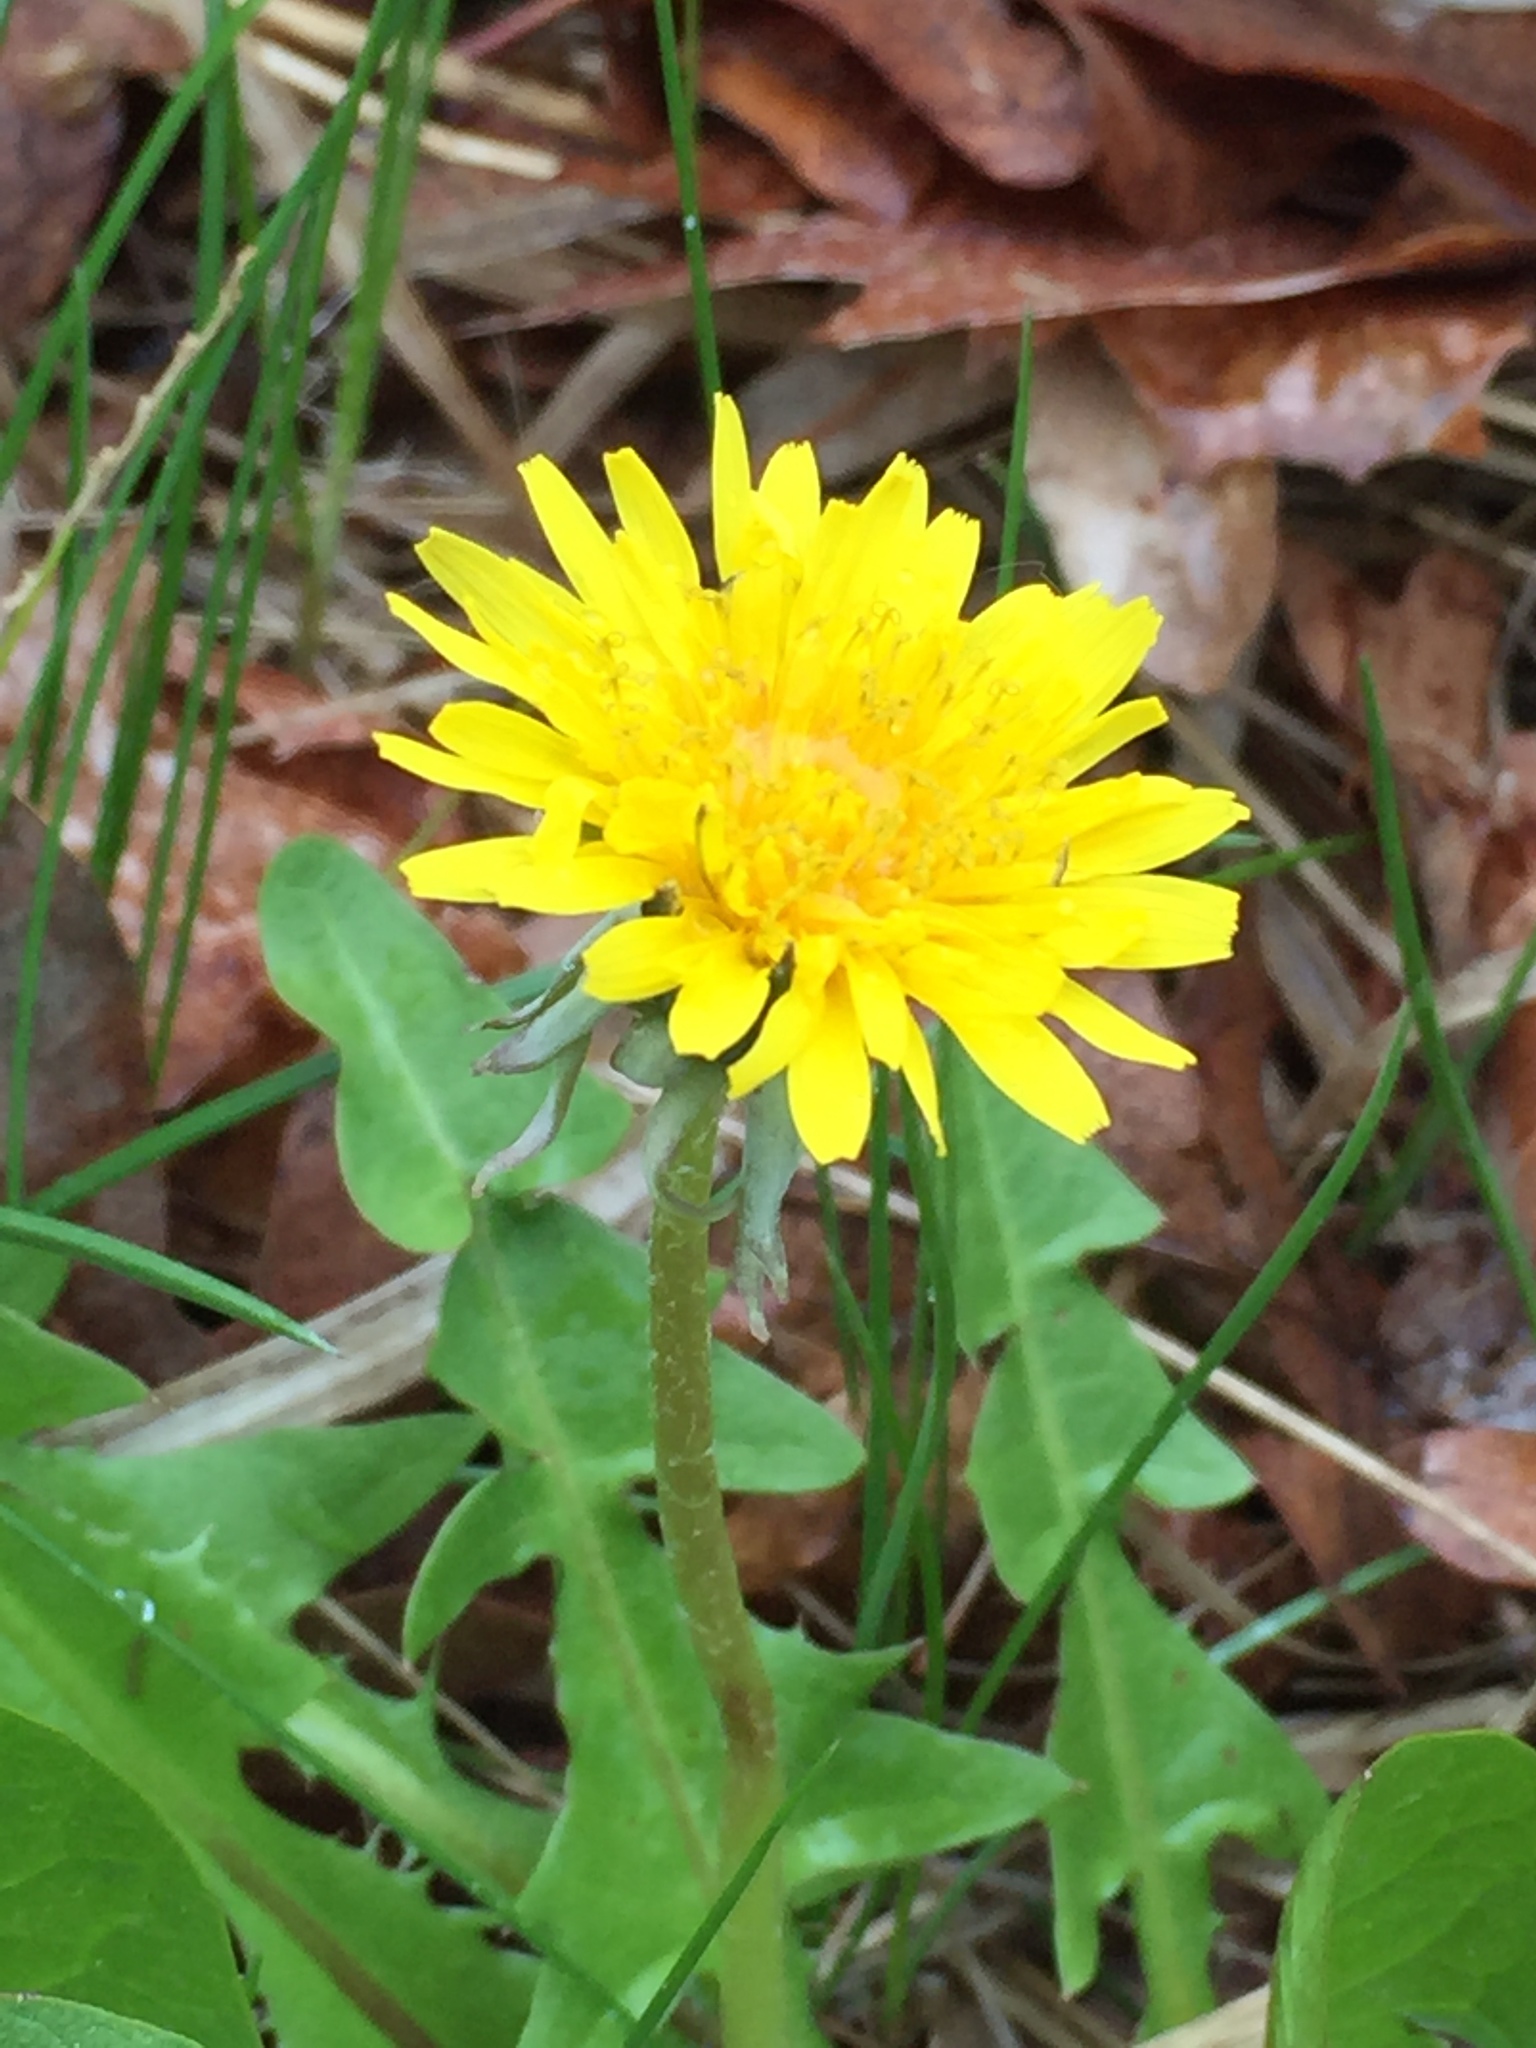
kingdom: Plantae
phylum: Tracheophyta
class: Magnoliopsida
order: Asterales
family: Asteraceae
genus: Taraxacum
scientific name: Taraxacum officinale
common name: Common dandelion
